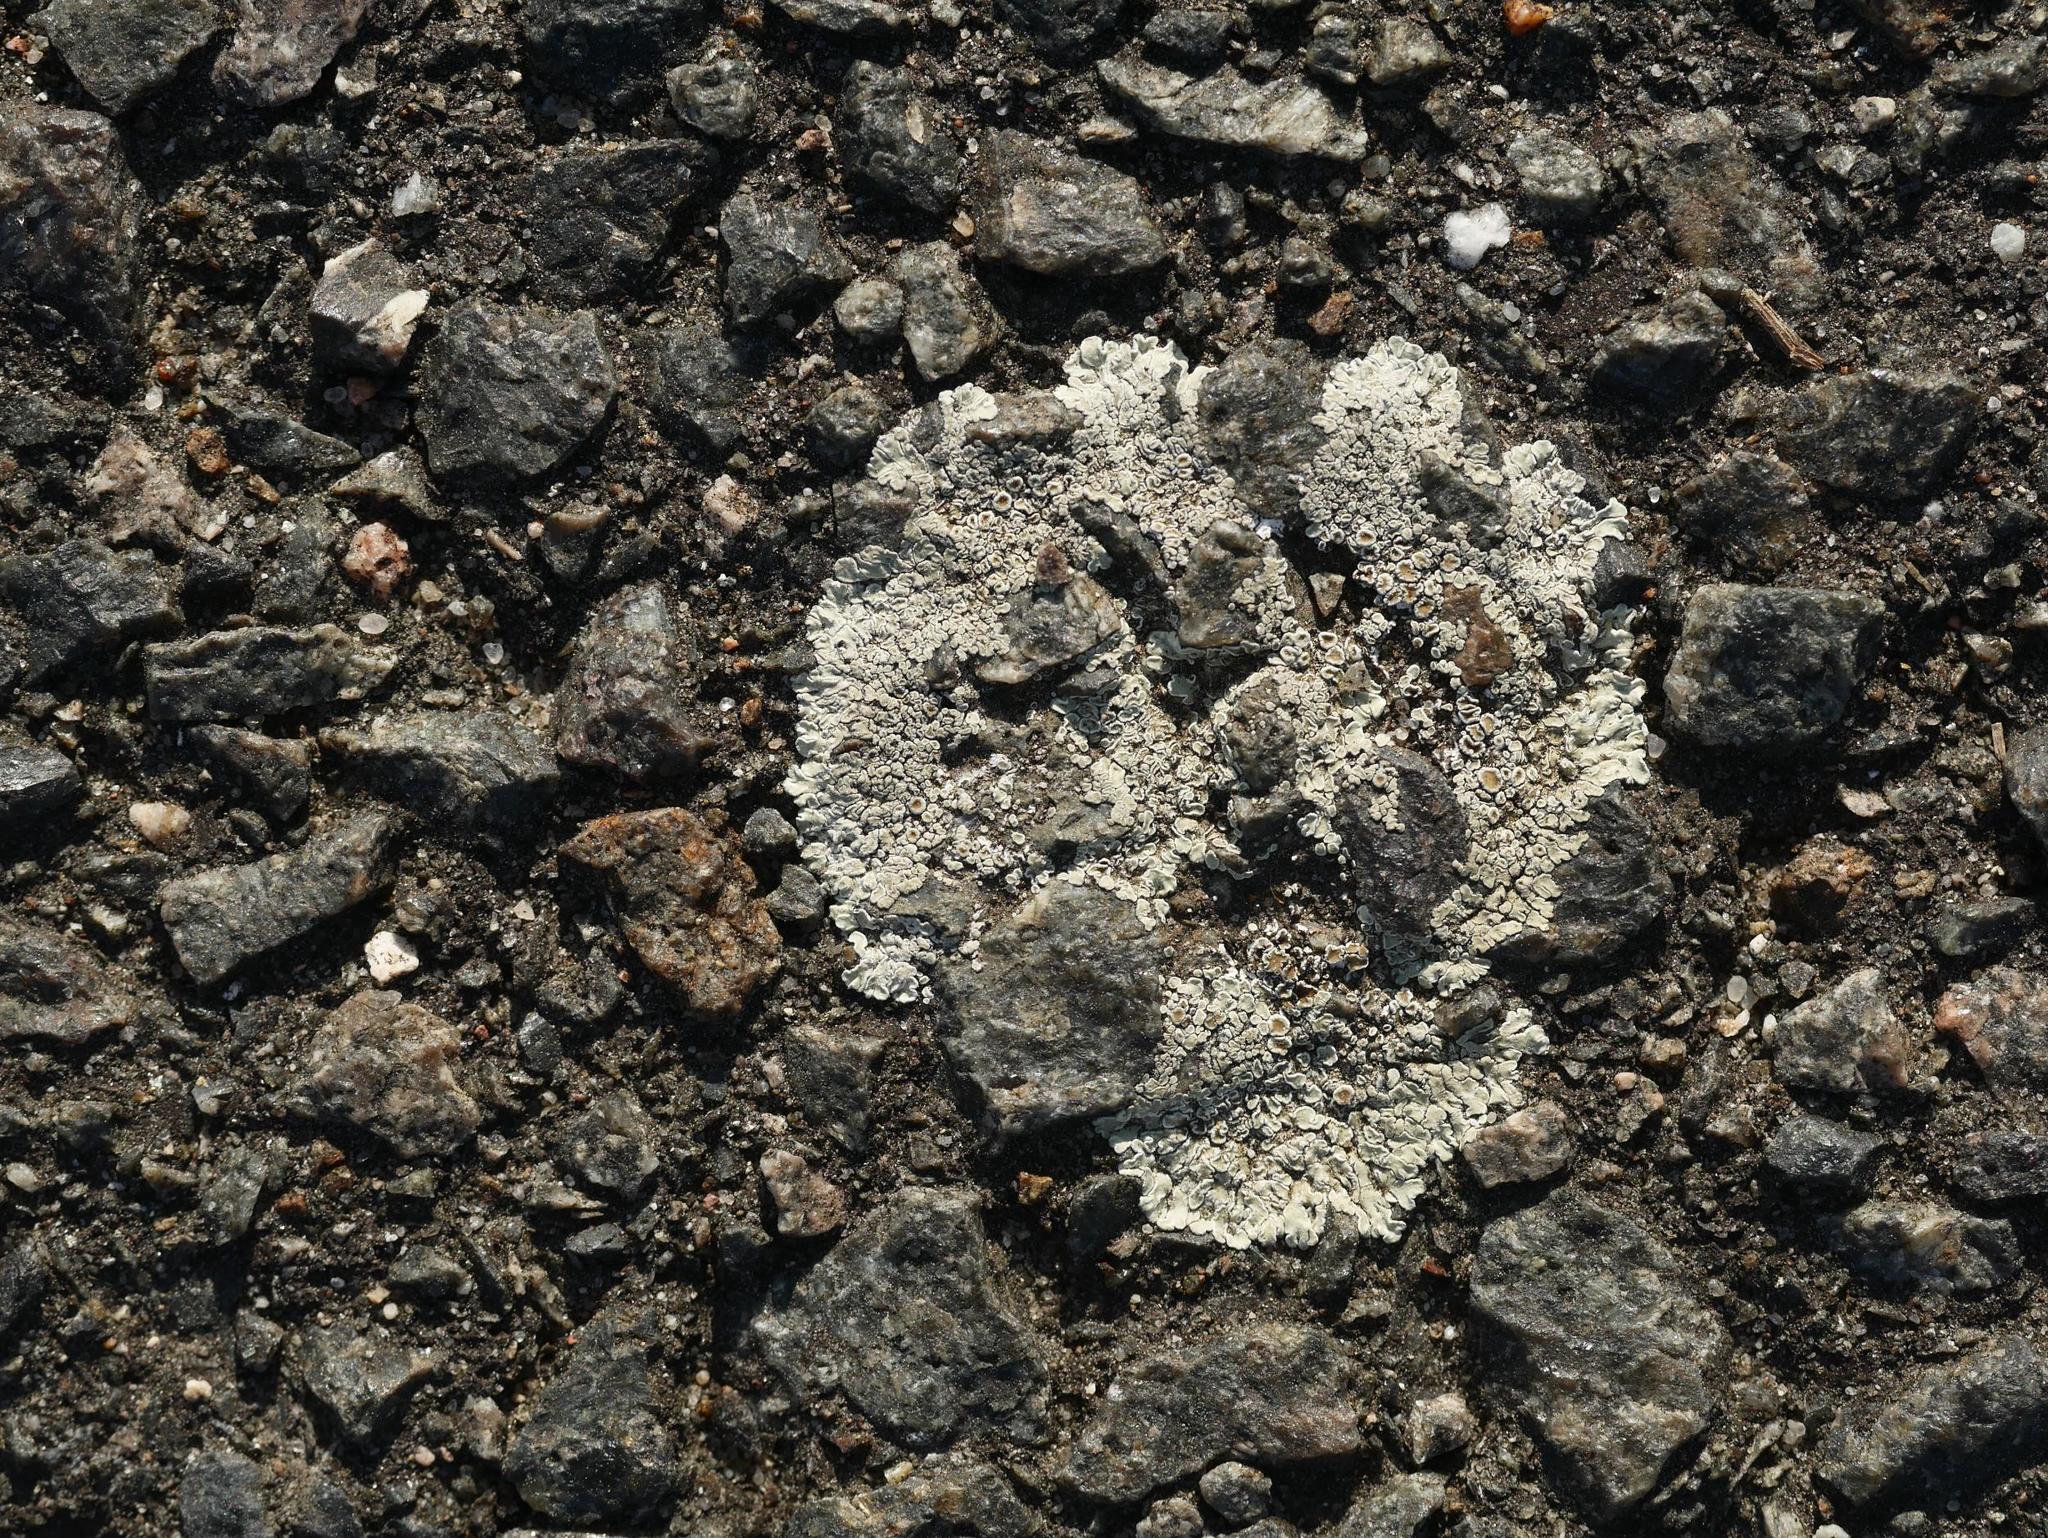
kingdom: Fungi
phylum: Ascomycota
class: Lecanoromycetes
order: Lecanorales
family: Lecanoraceae
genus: Protoparmeliopsis
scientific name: Protoparmeliopsis muralis
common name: Stonewall rim lichen
